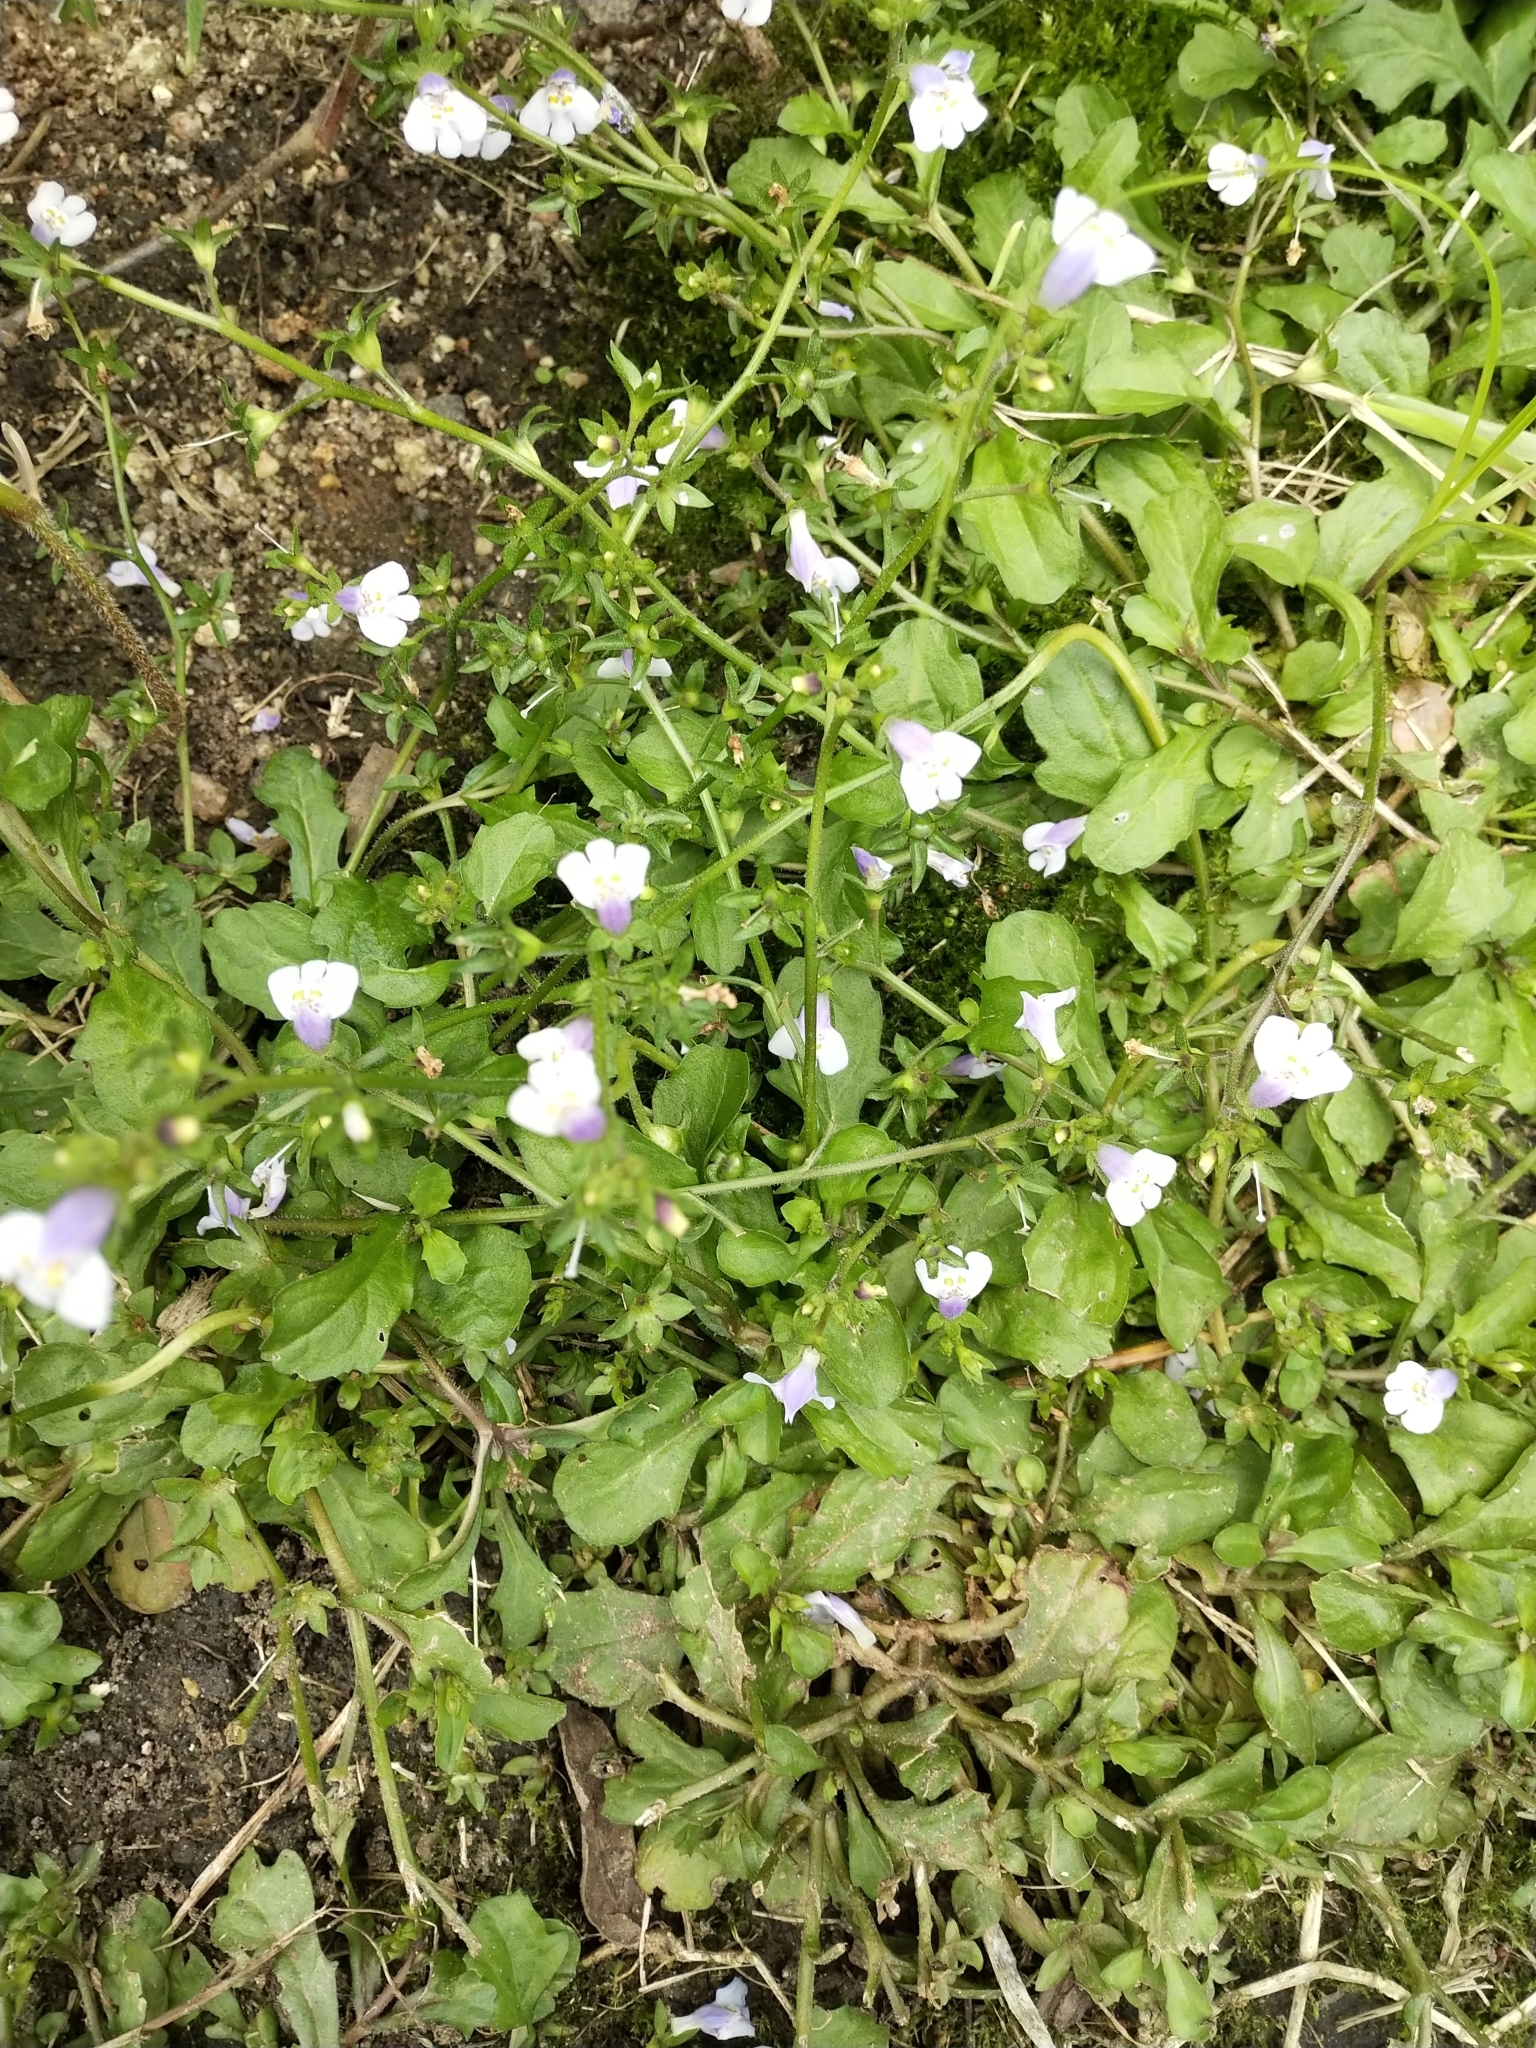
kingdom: Plantae
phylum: Tracheophyta
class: Magnoliopsida
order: Lamiales
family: Mazaceae
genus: Mazus
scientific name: Mazus pumilus
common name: Japanese mazus
